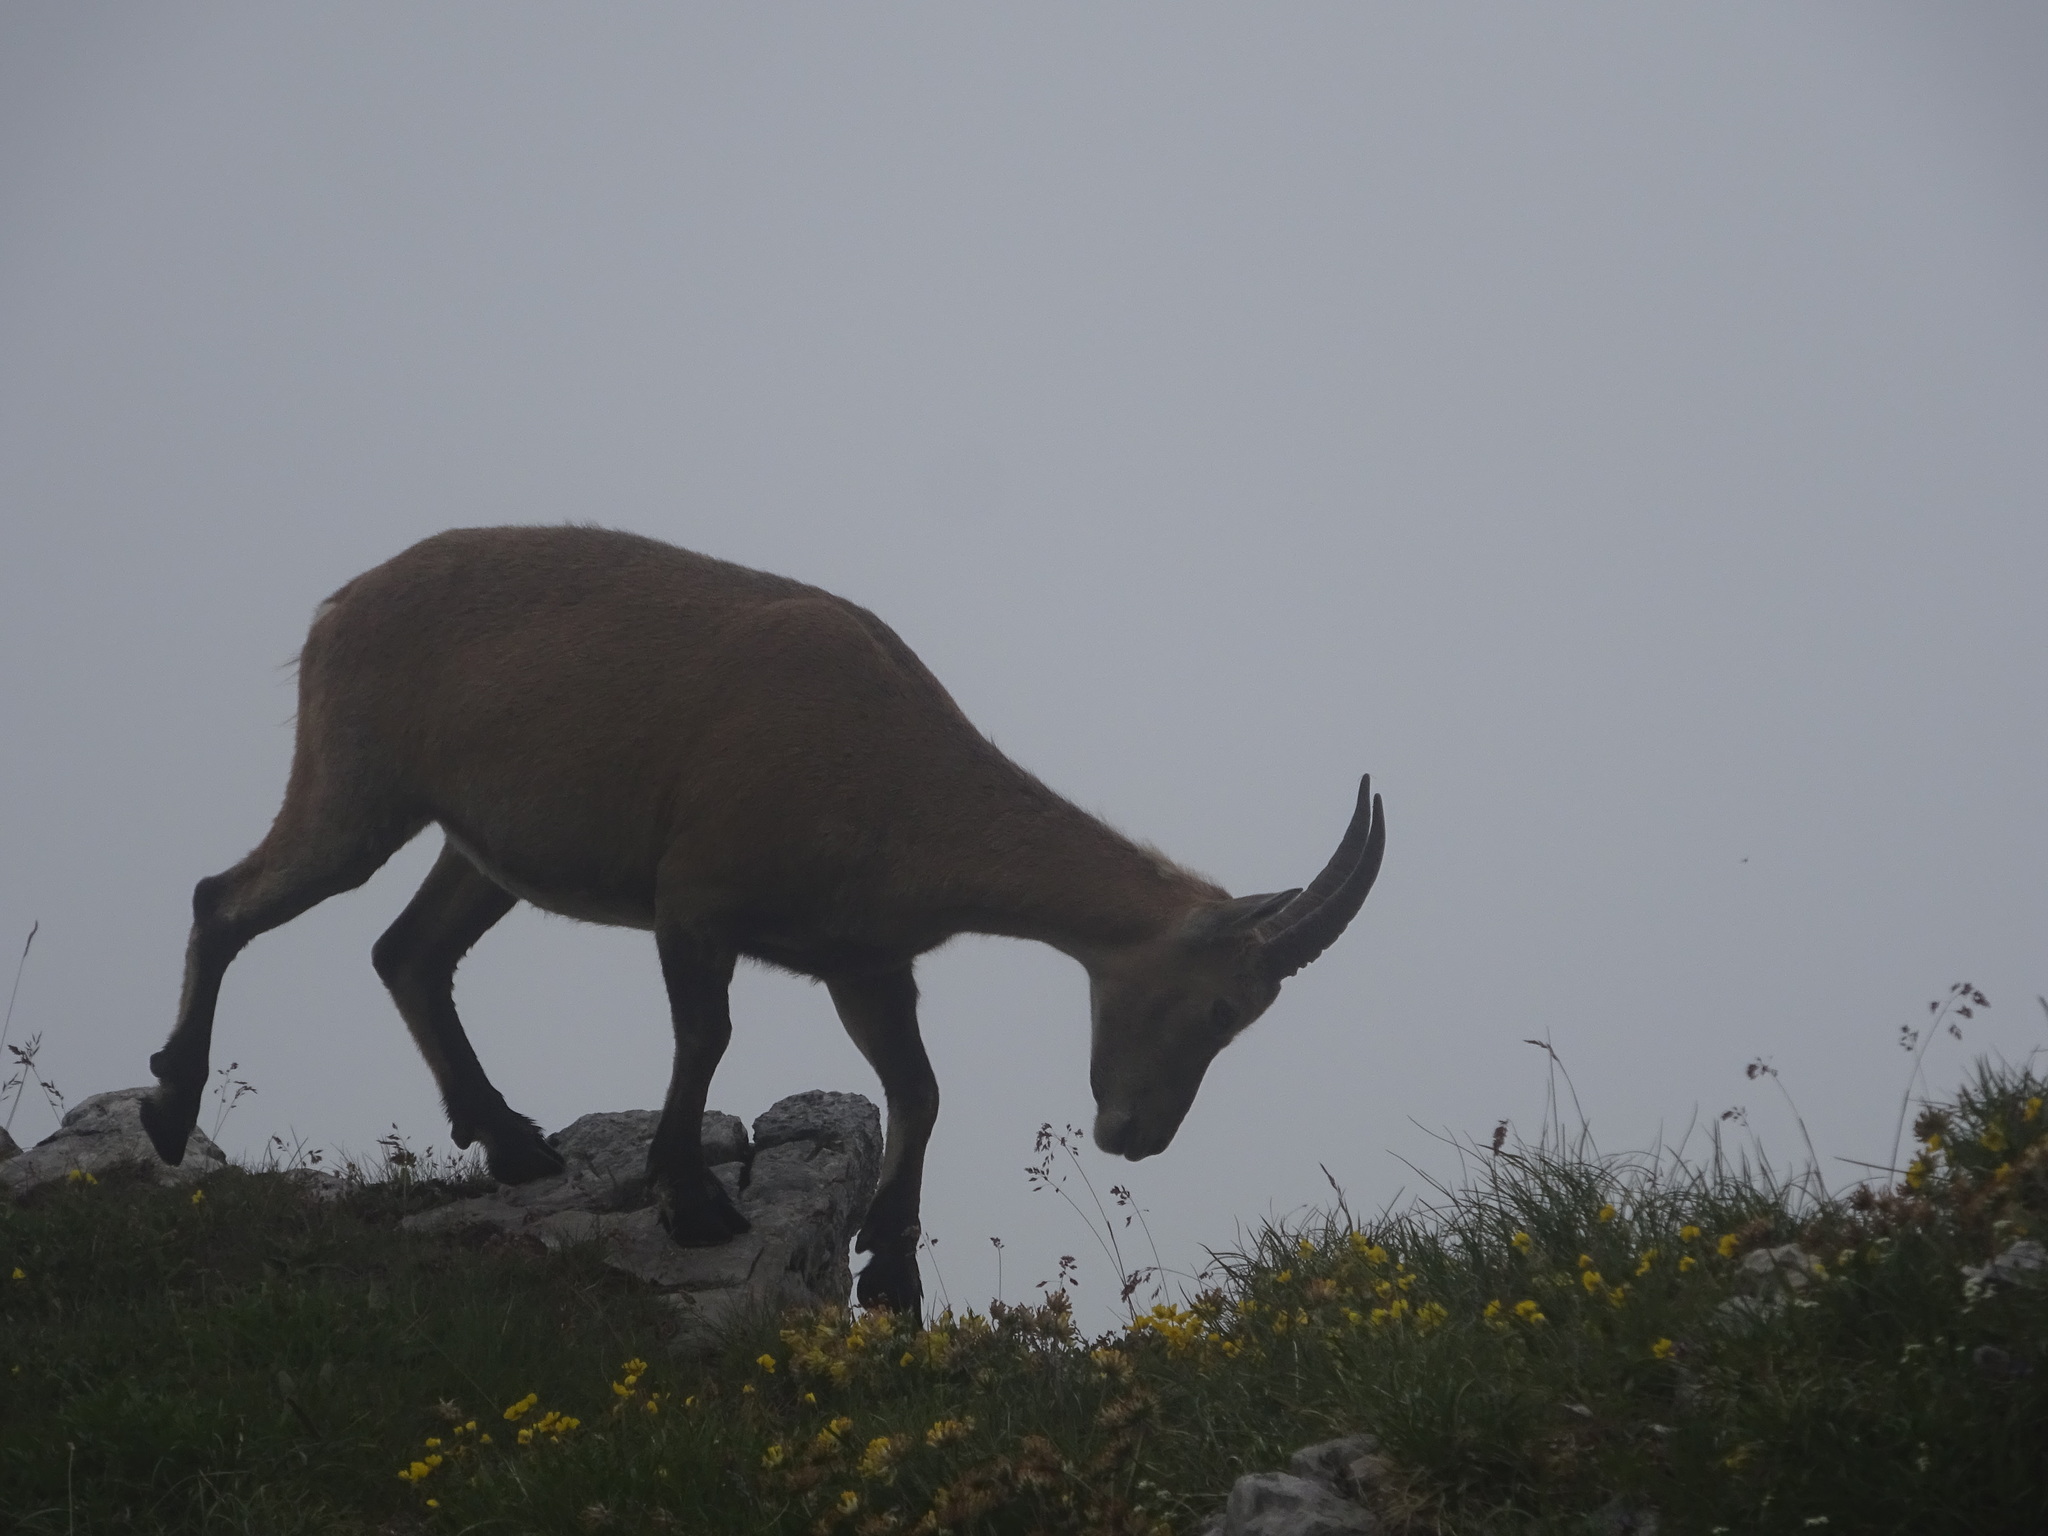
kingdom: Animalia
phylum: Chordata
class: Mammalia
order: Artiodactyla
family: Bovidae
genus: Capra
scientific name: Capra ibex
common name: Alpine ibex
